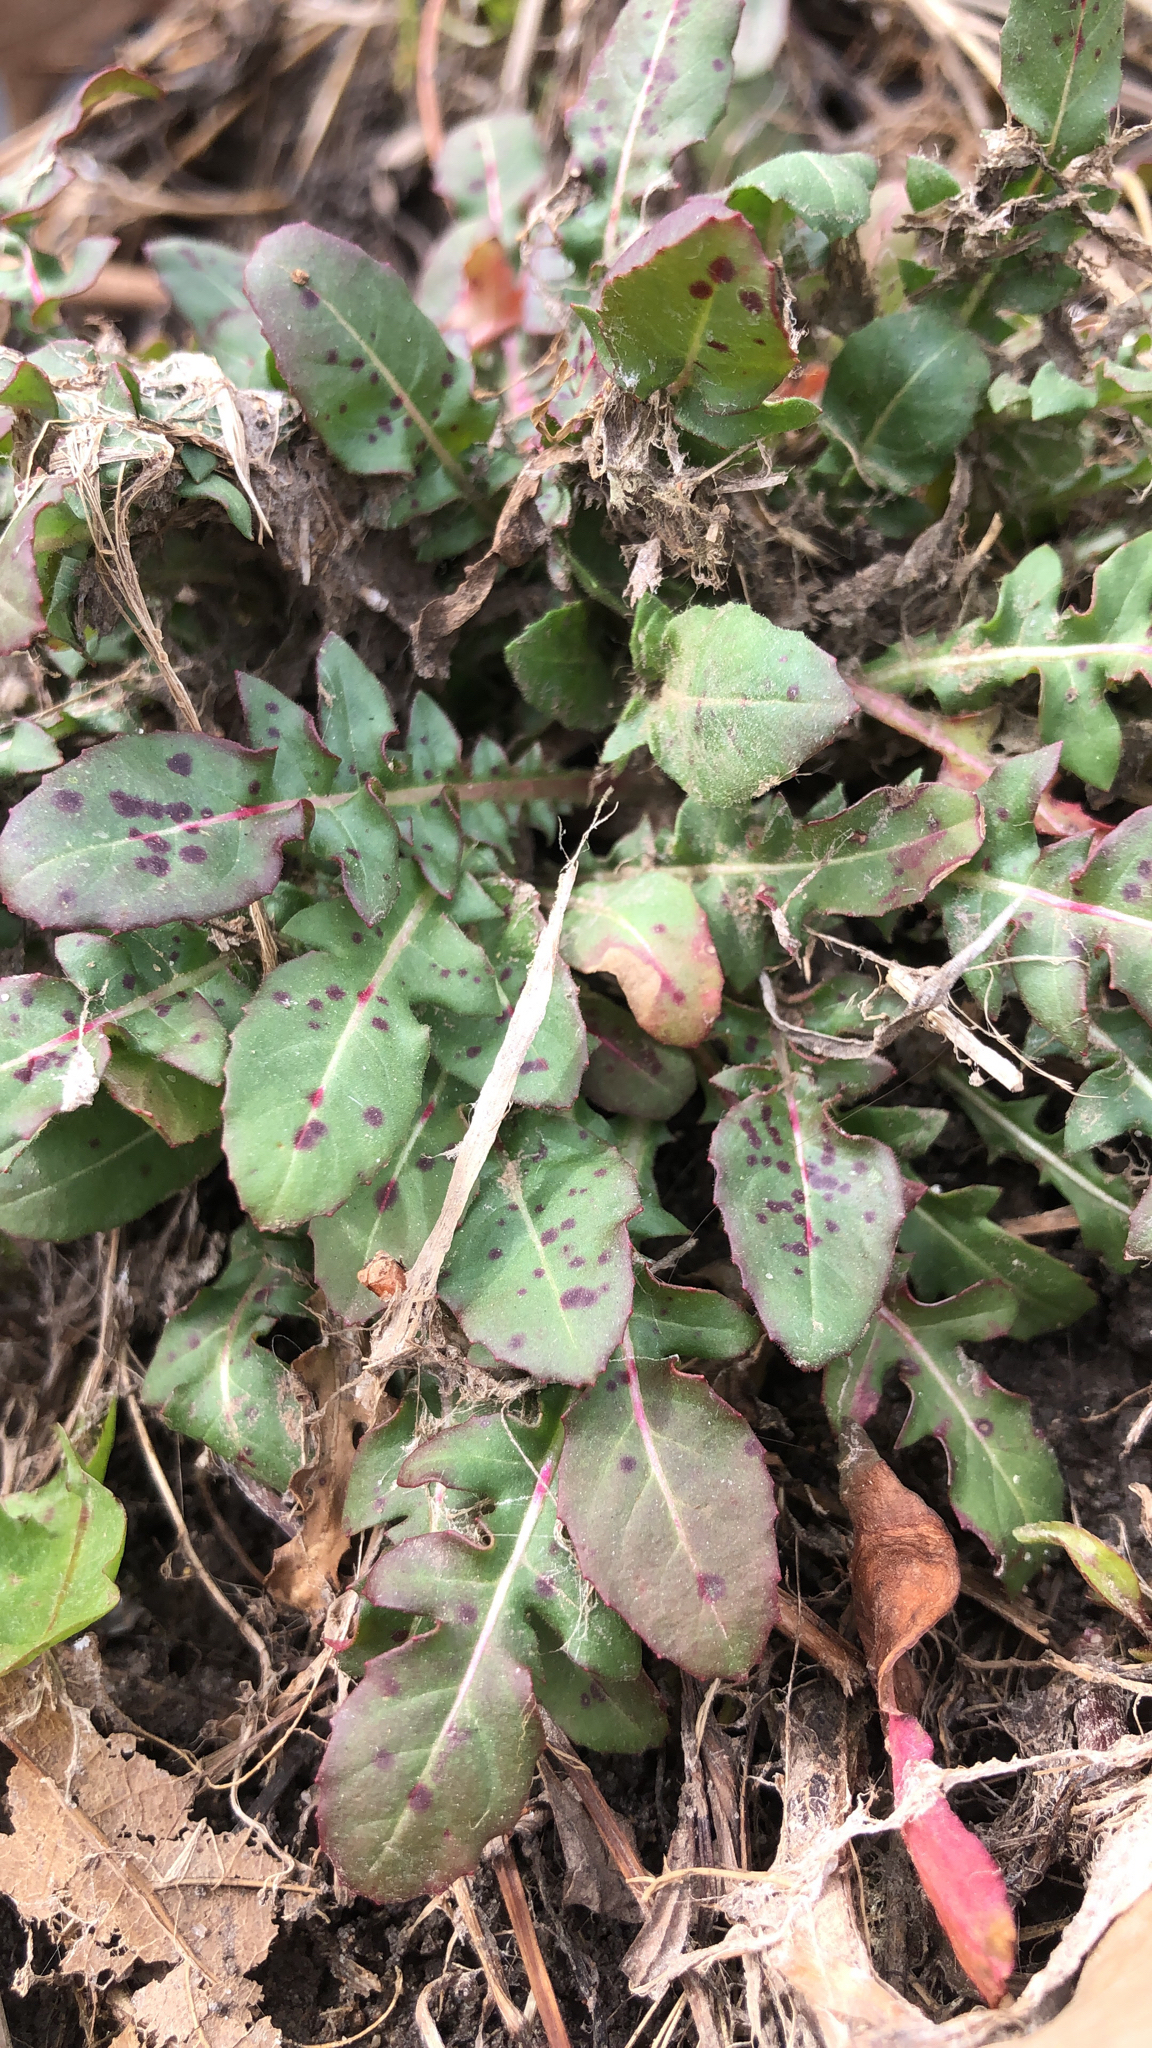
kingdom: Plantae
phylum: Tracheophyta
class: Magnoliopsida
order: Myrtales
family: Onagraceae
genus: Oenothera
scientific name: Oenothera laciniata
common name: Cut-leaved evening-primrose
